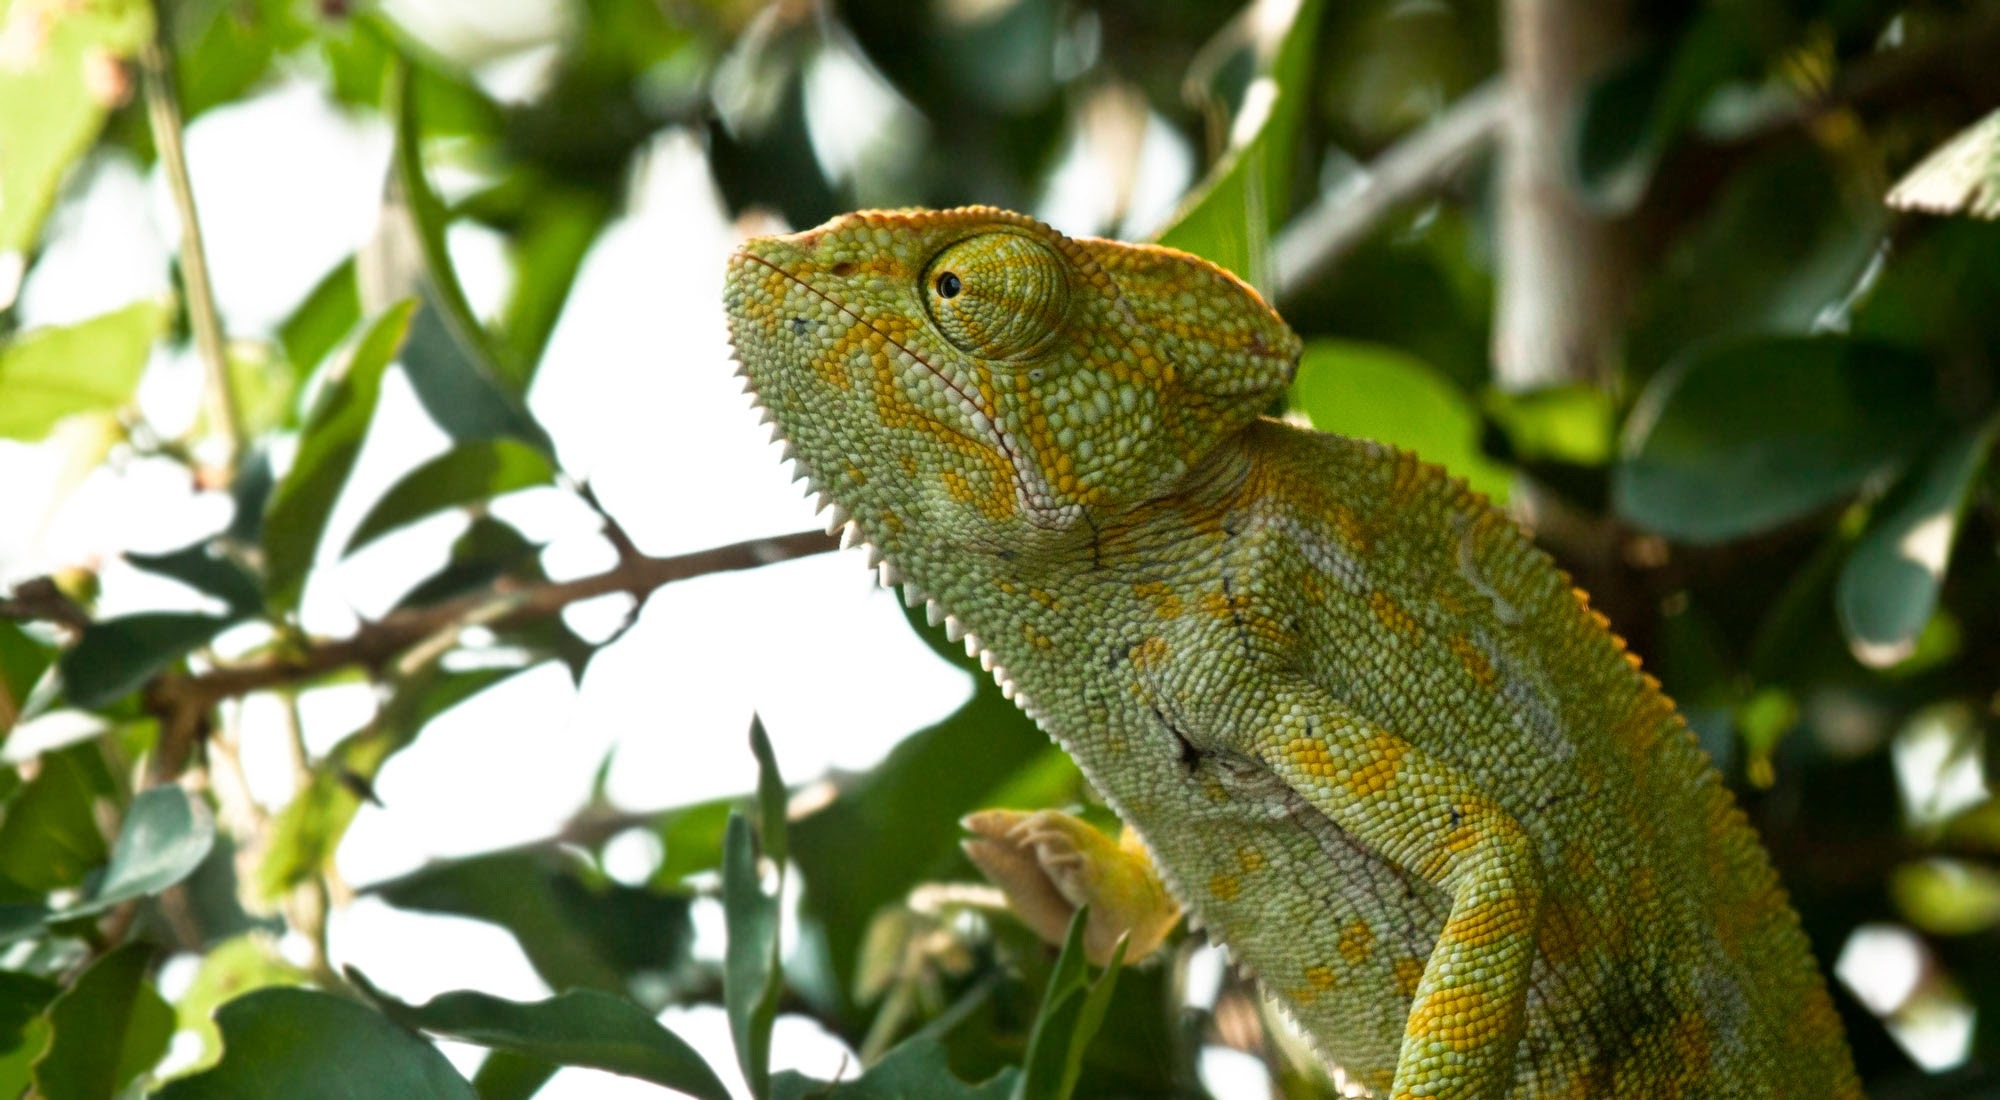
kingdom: Animalia
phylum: Chordata
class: Squamata
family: Chamaeleonidae
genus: Chamaeleo
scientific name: Chamaeleo zeylanicus
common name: Indian chameleon
